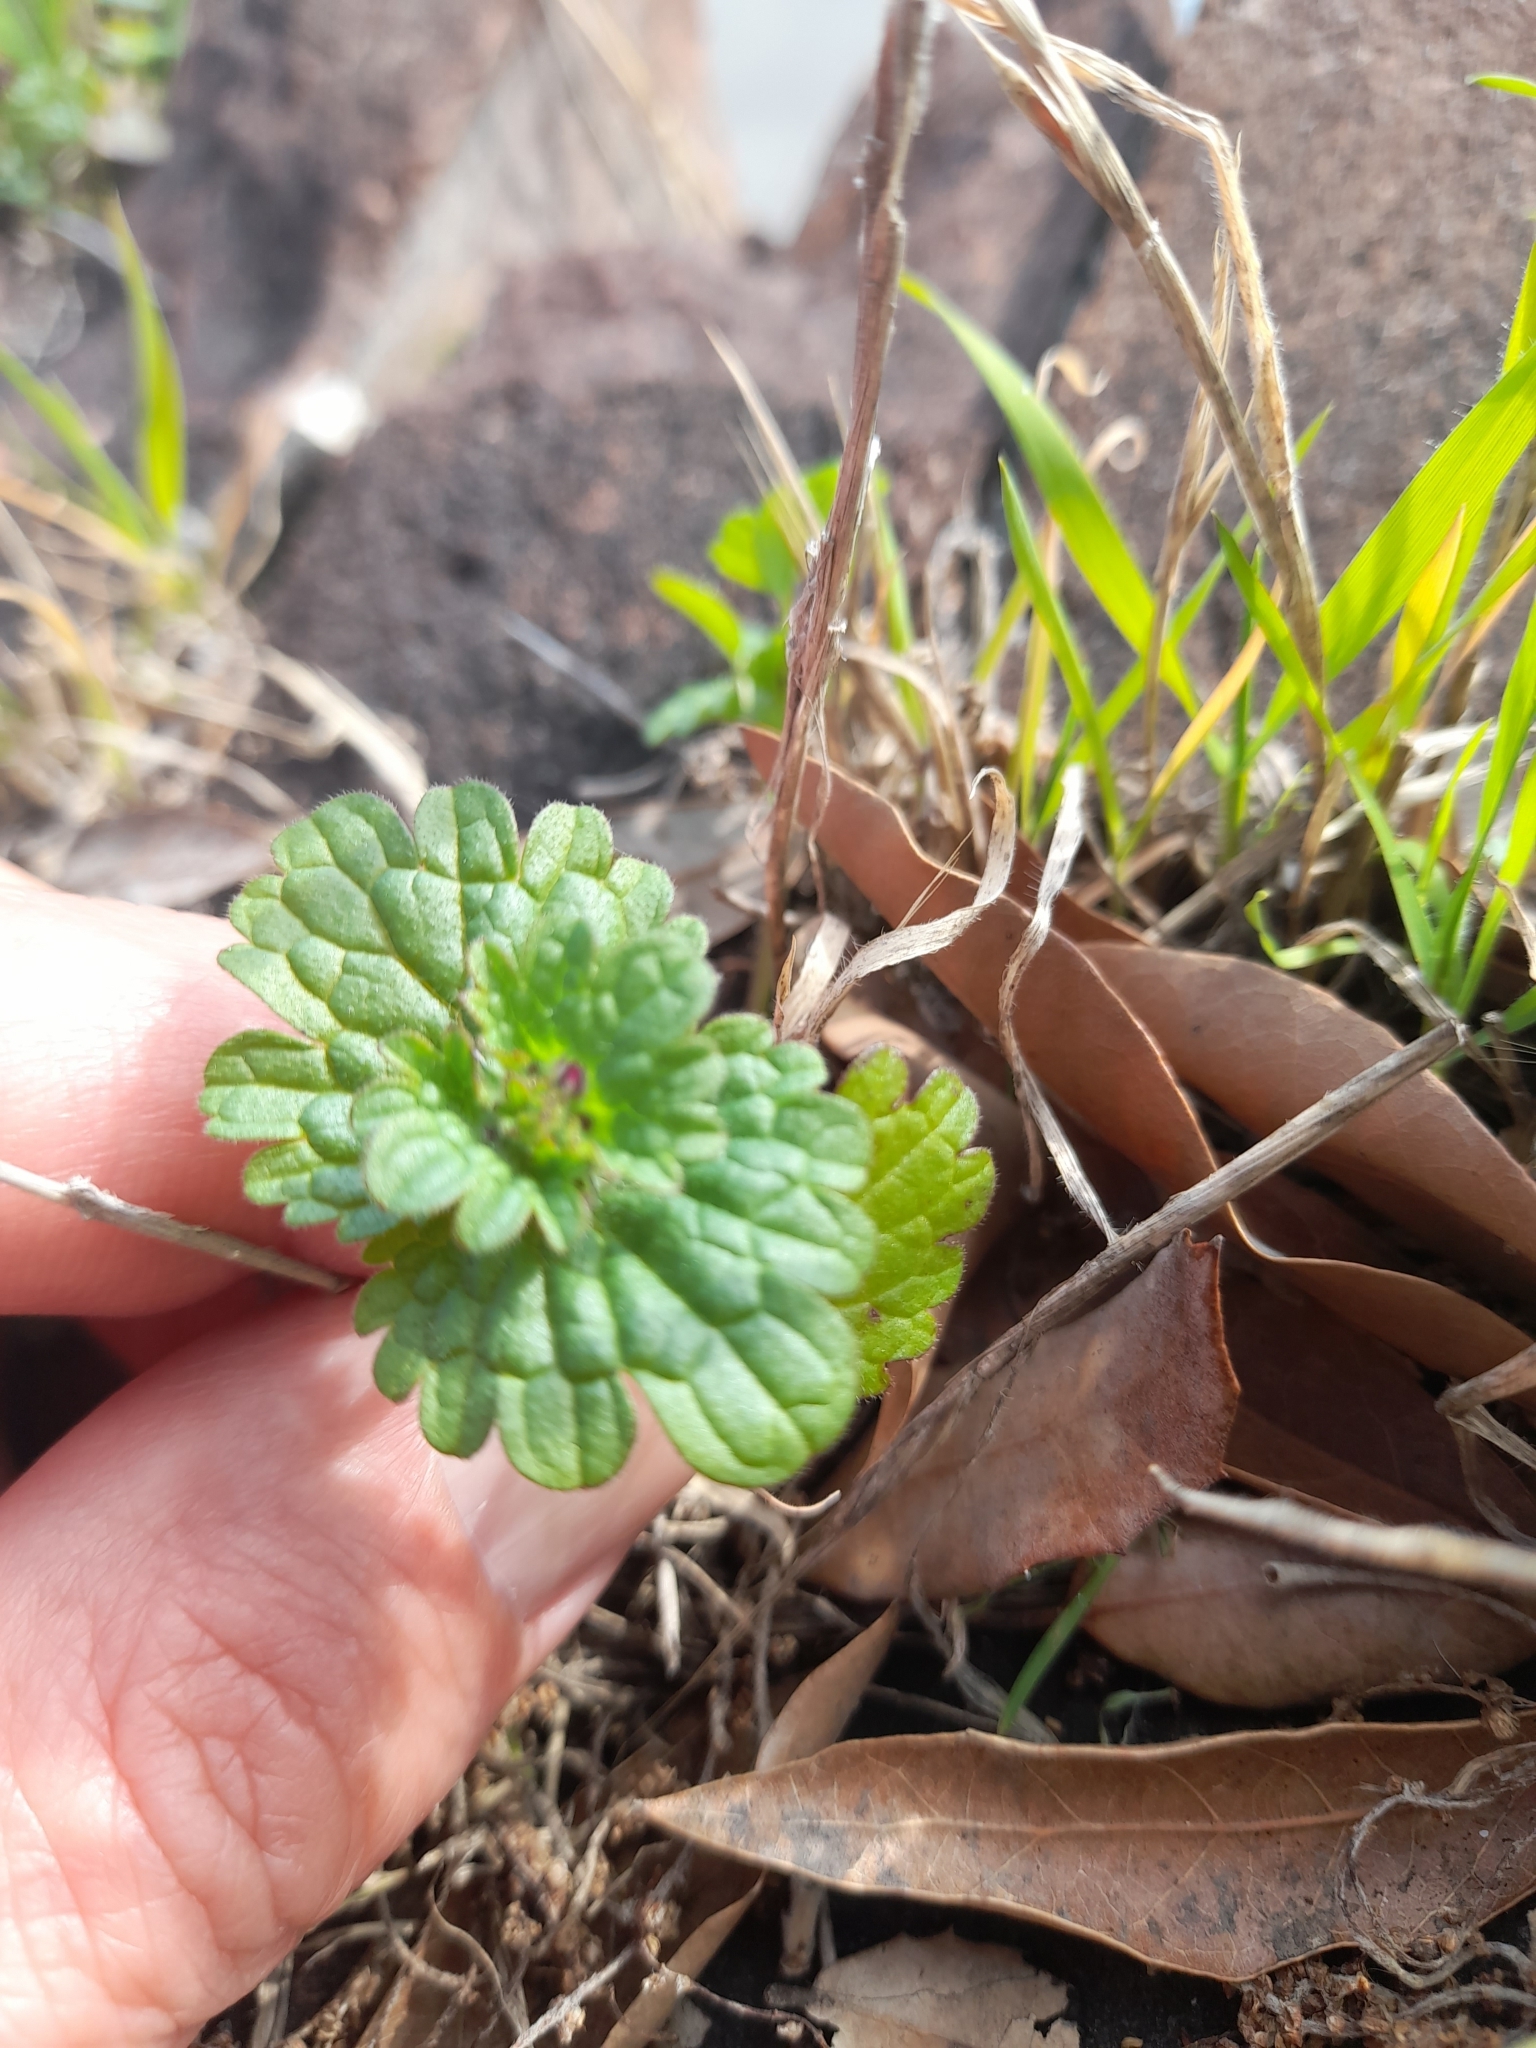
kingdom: Plantae
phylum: Tracheophyta
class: Magnoliopsida
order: Lamiales
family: Lamiaceae
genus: Lamium
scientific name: Lamium amplexicaule
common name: Henbit dead-nettle
